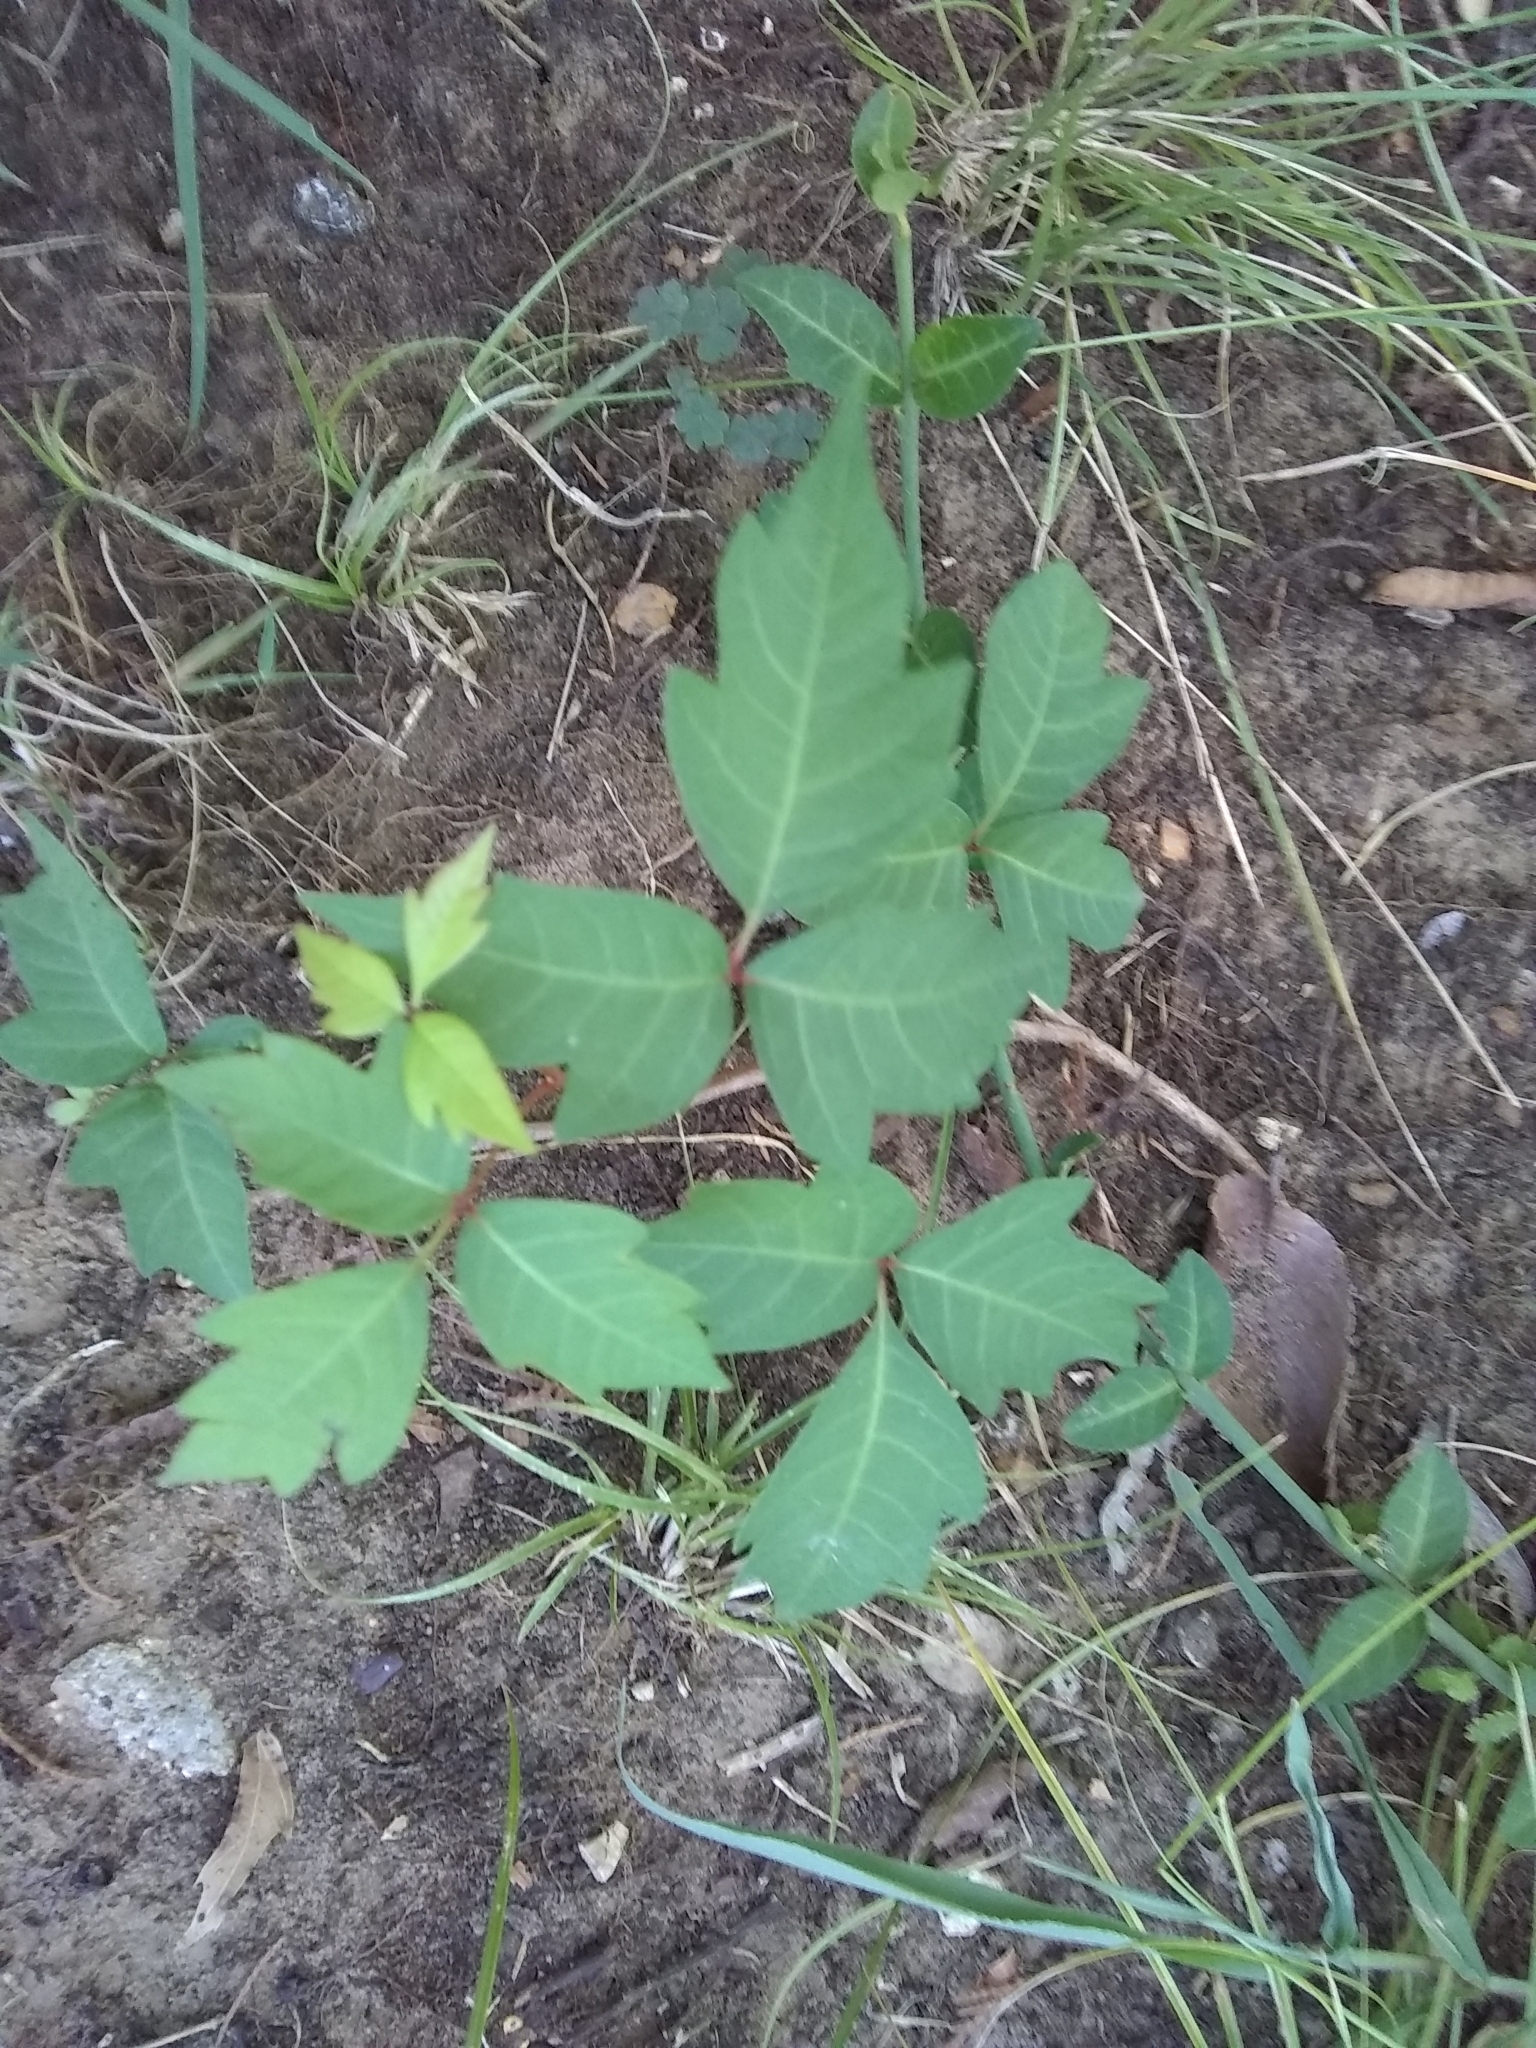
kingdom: Plantae
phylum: Tracheophyta
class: Magnoliopsida
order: Sapindales
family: Anacardiaceae
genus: Toxicodendron
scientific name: Toxicodendron radicans
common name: Poison ivy
